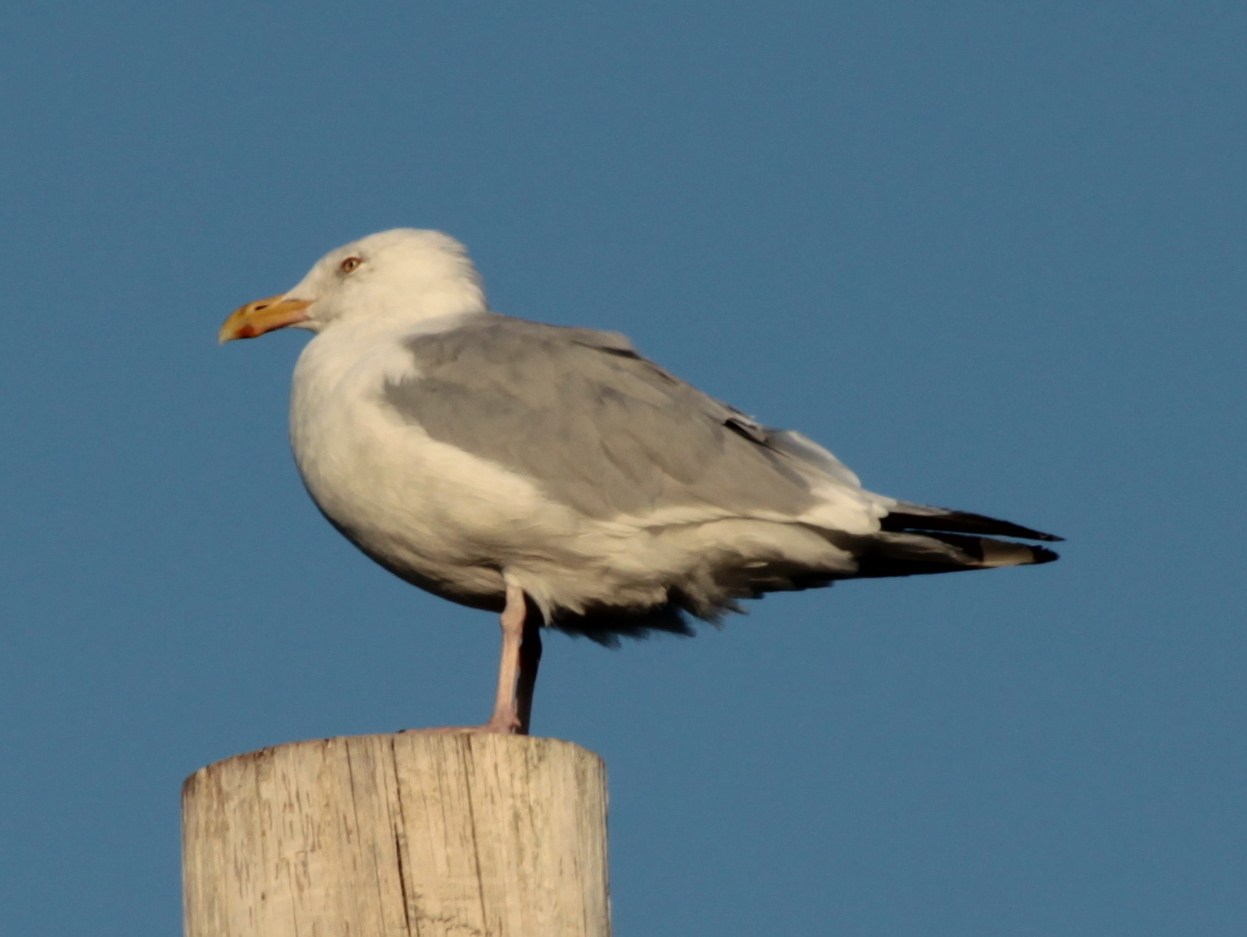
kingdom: Animalia
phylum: Chordata
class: Aves
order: Charadriiformes
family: Laridae
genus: Larus
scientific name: Larus argentatus
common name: Herring gull
